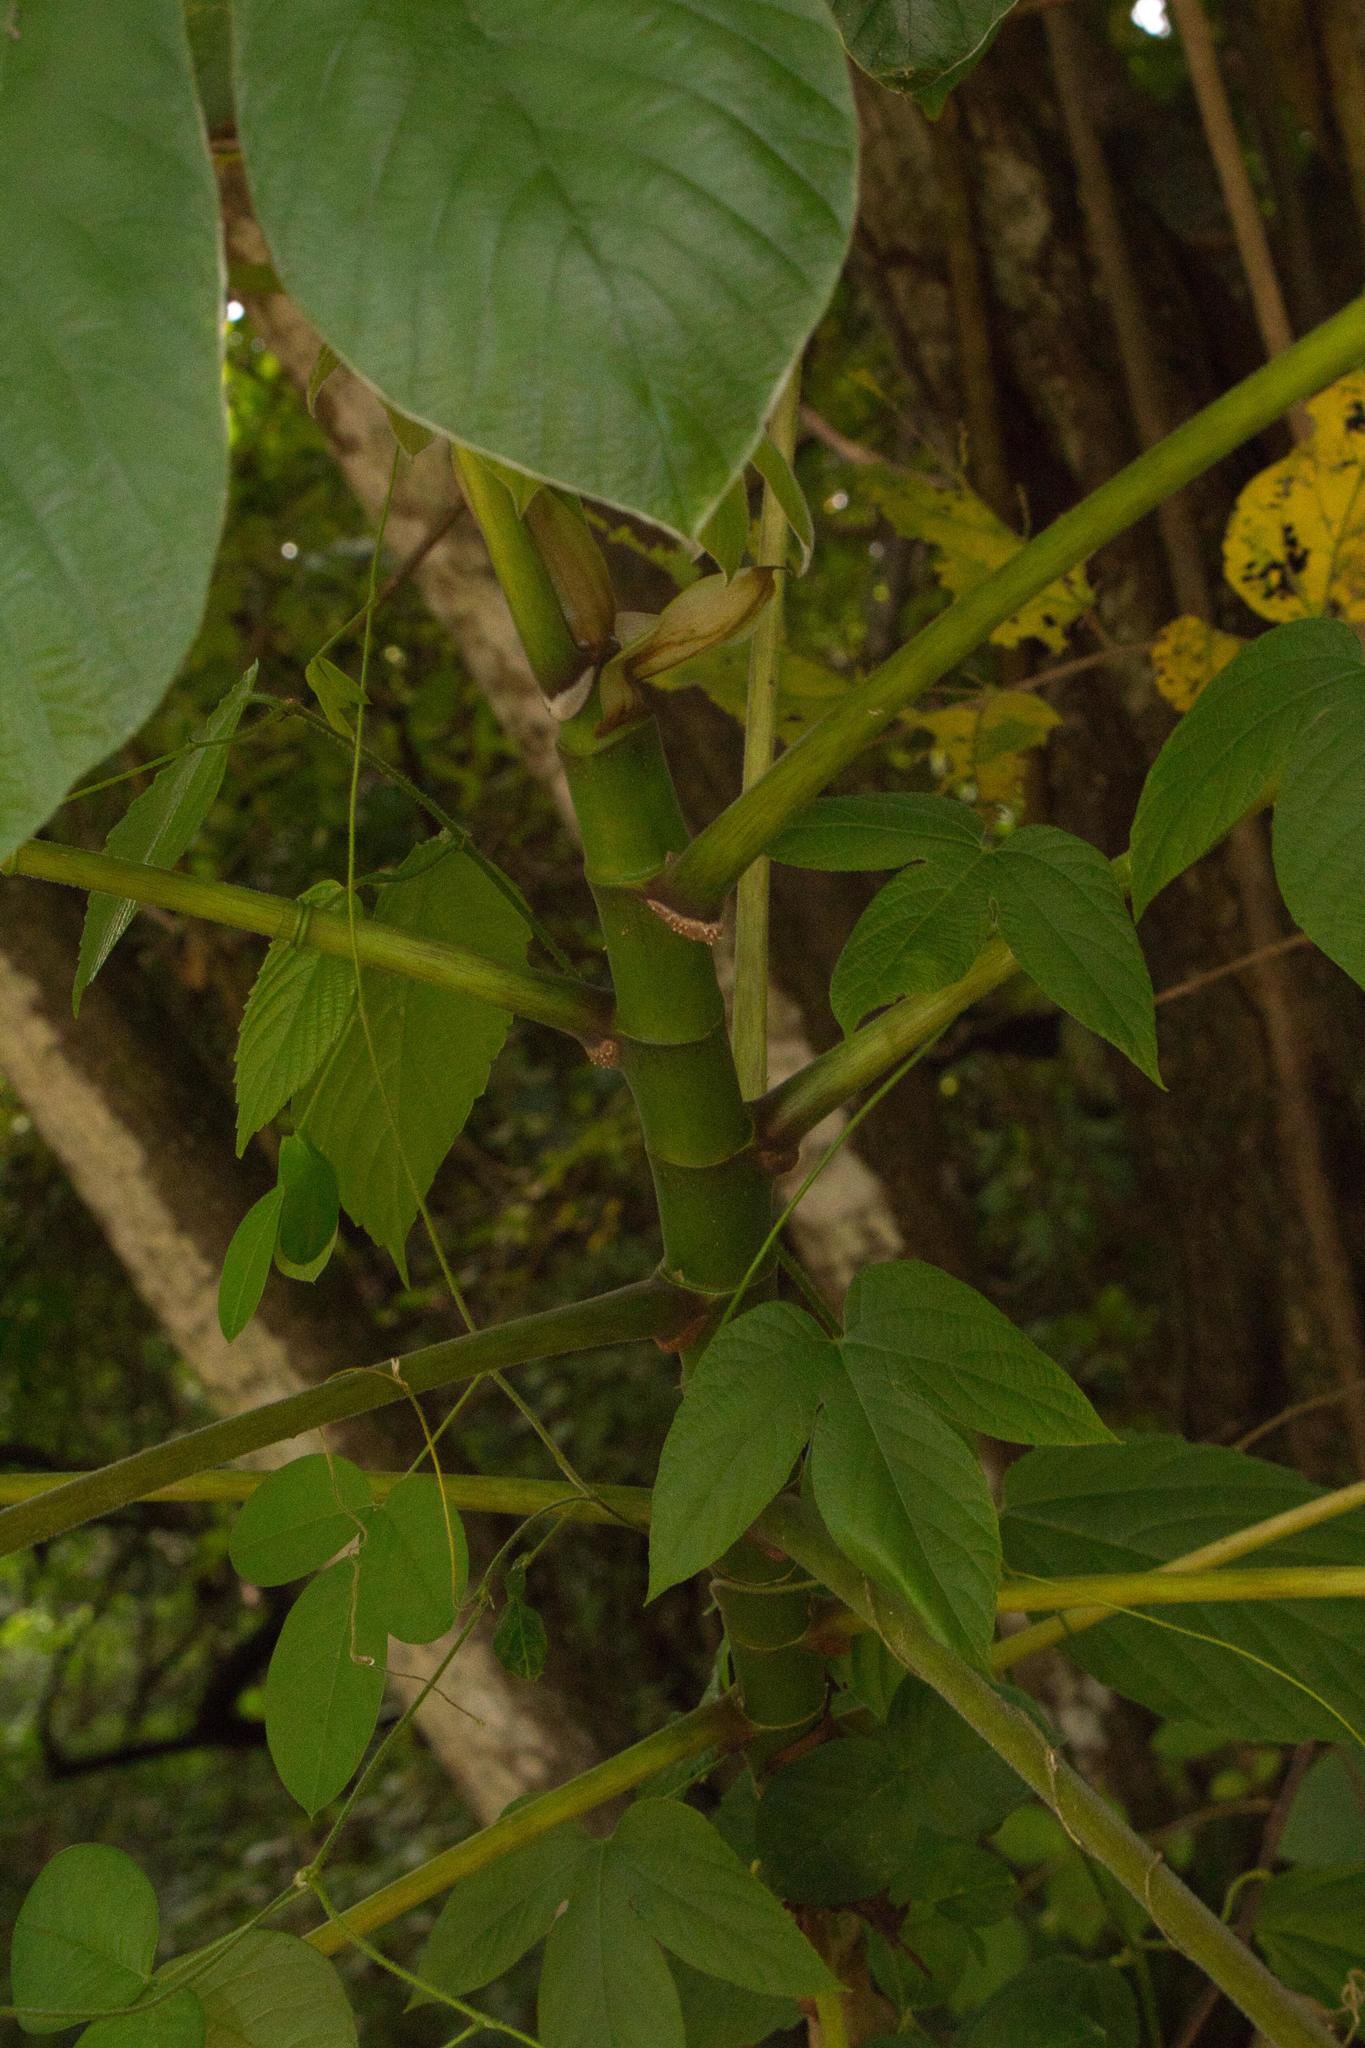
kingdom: Plantae
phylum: Tracheophyta
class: Magnoliopsida
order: Rosales
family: Urticaceae
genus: Cecropia
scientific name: Cecropia peltata
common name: Trumpet-tree
